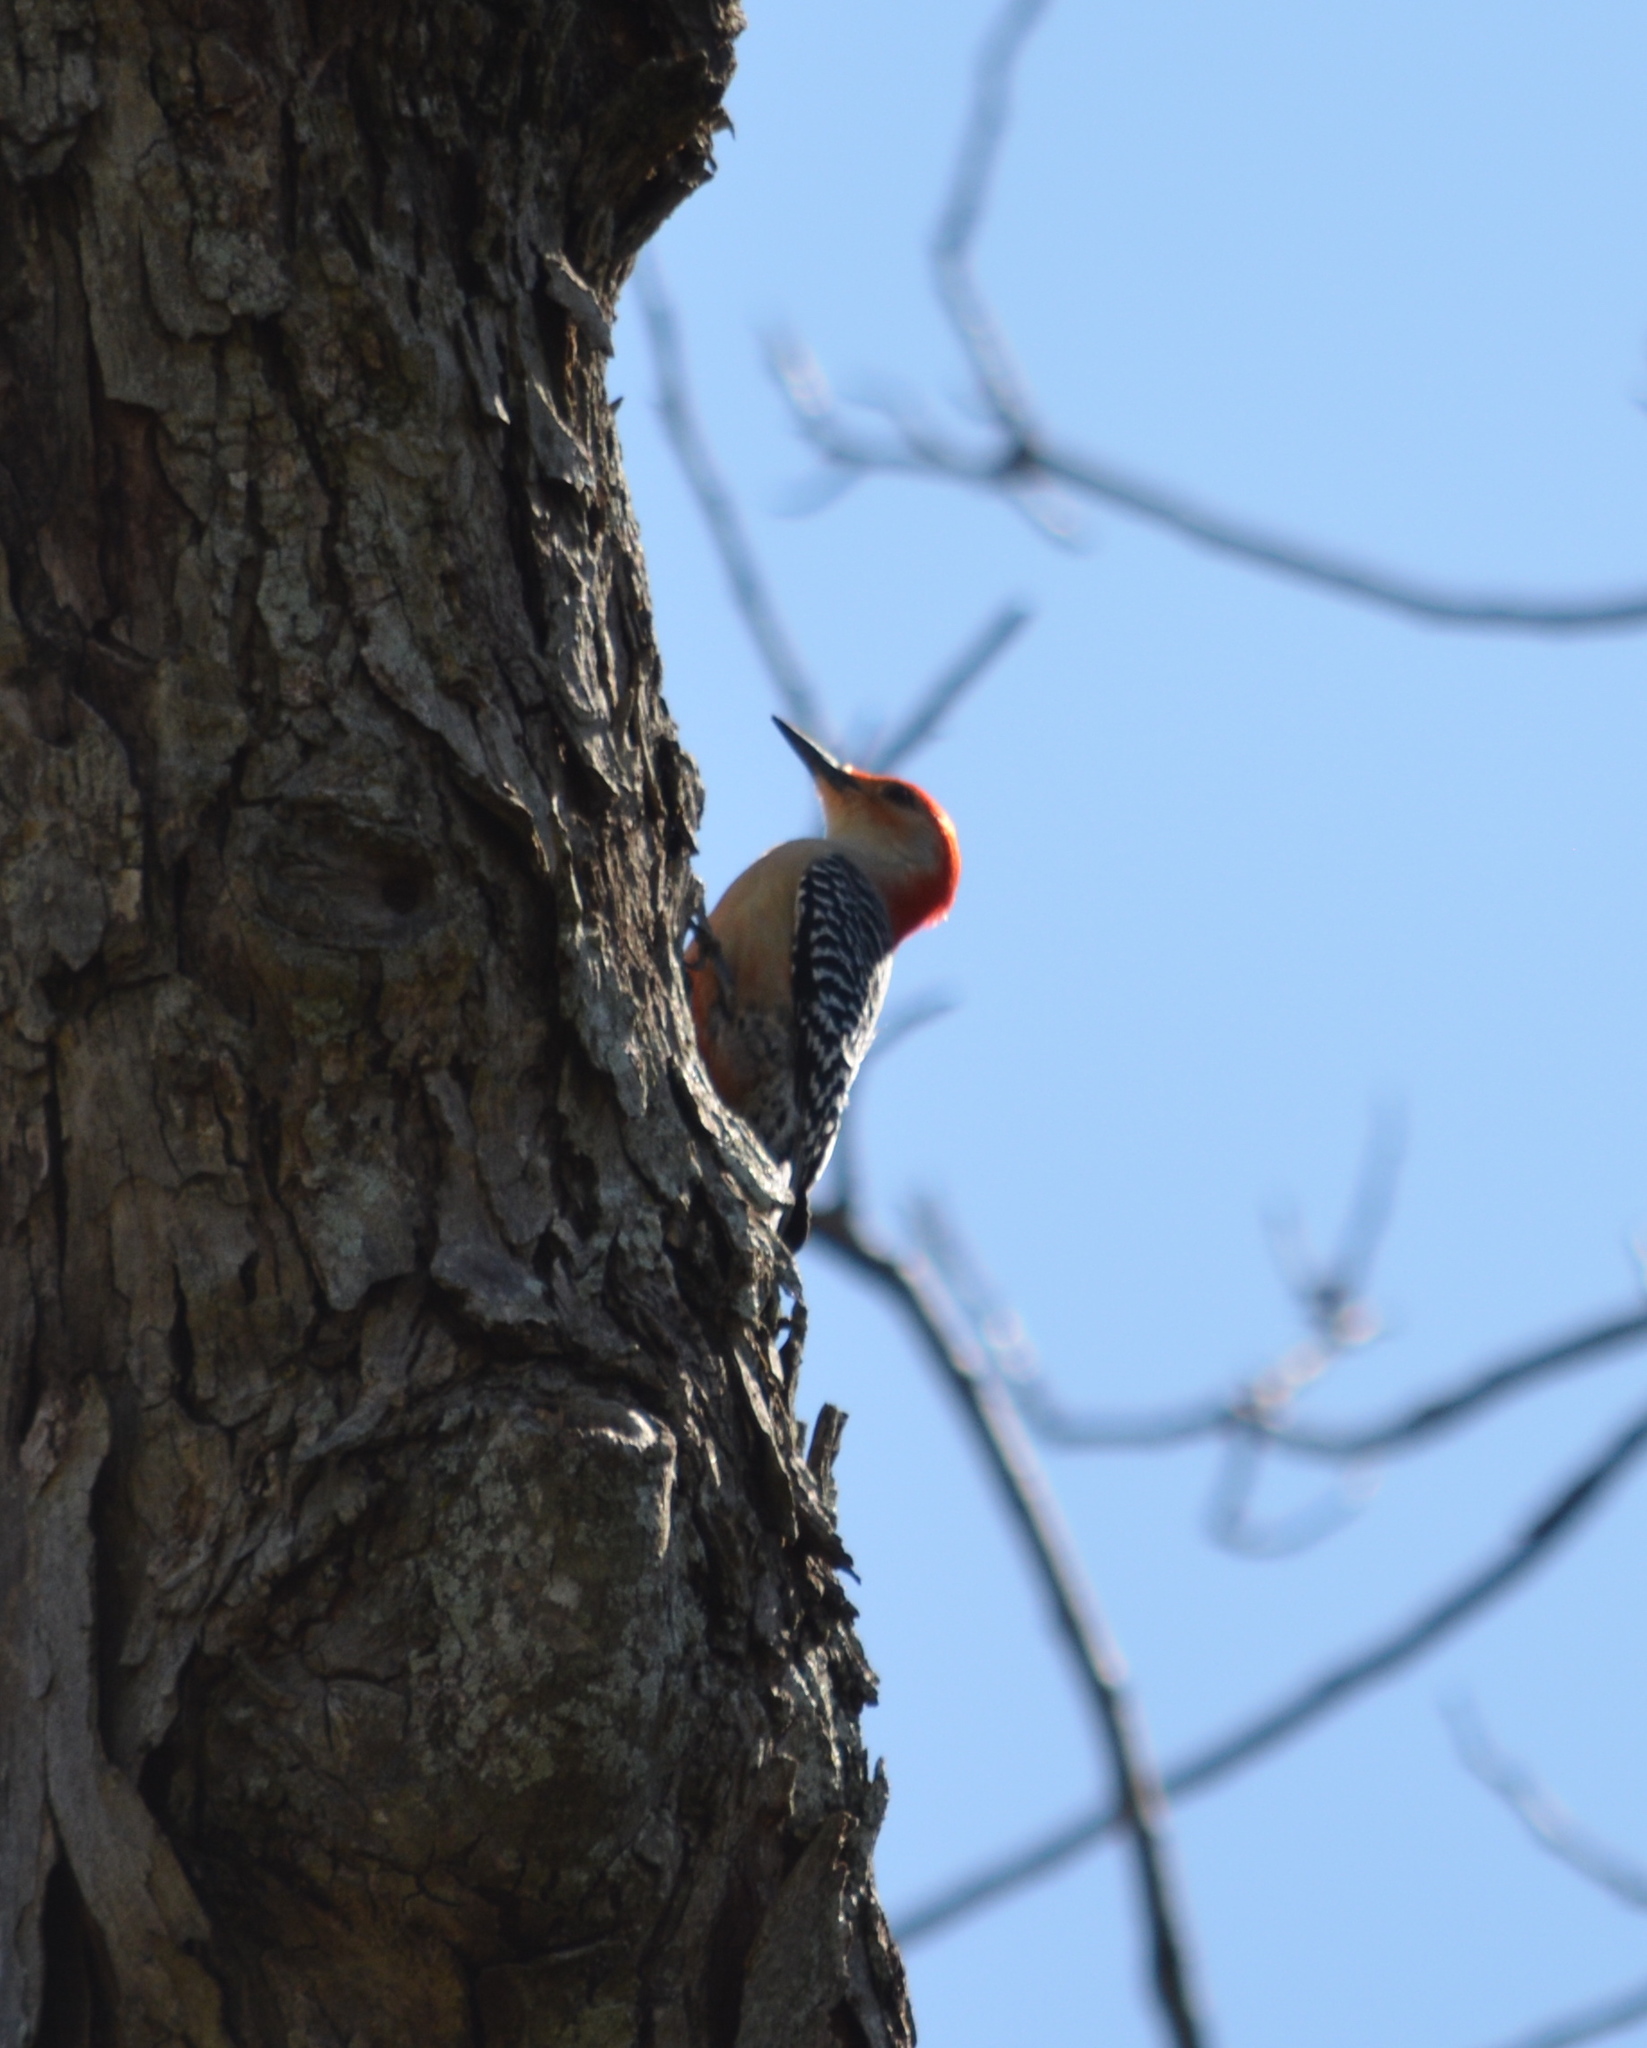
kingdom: Animalia
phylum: Chordata
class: Aves
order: Piciformes
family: Picidae
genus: Melanerpes
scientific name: Melanerpes carolinus
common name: Red-bellied woodpecker
